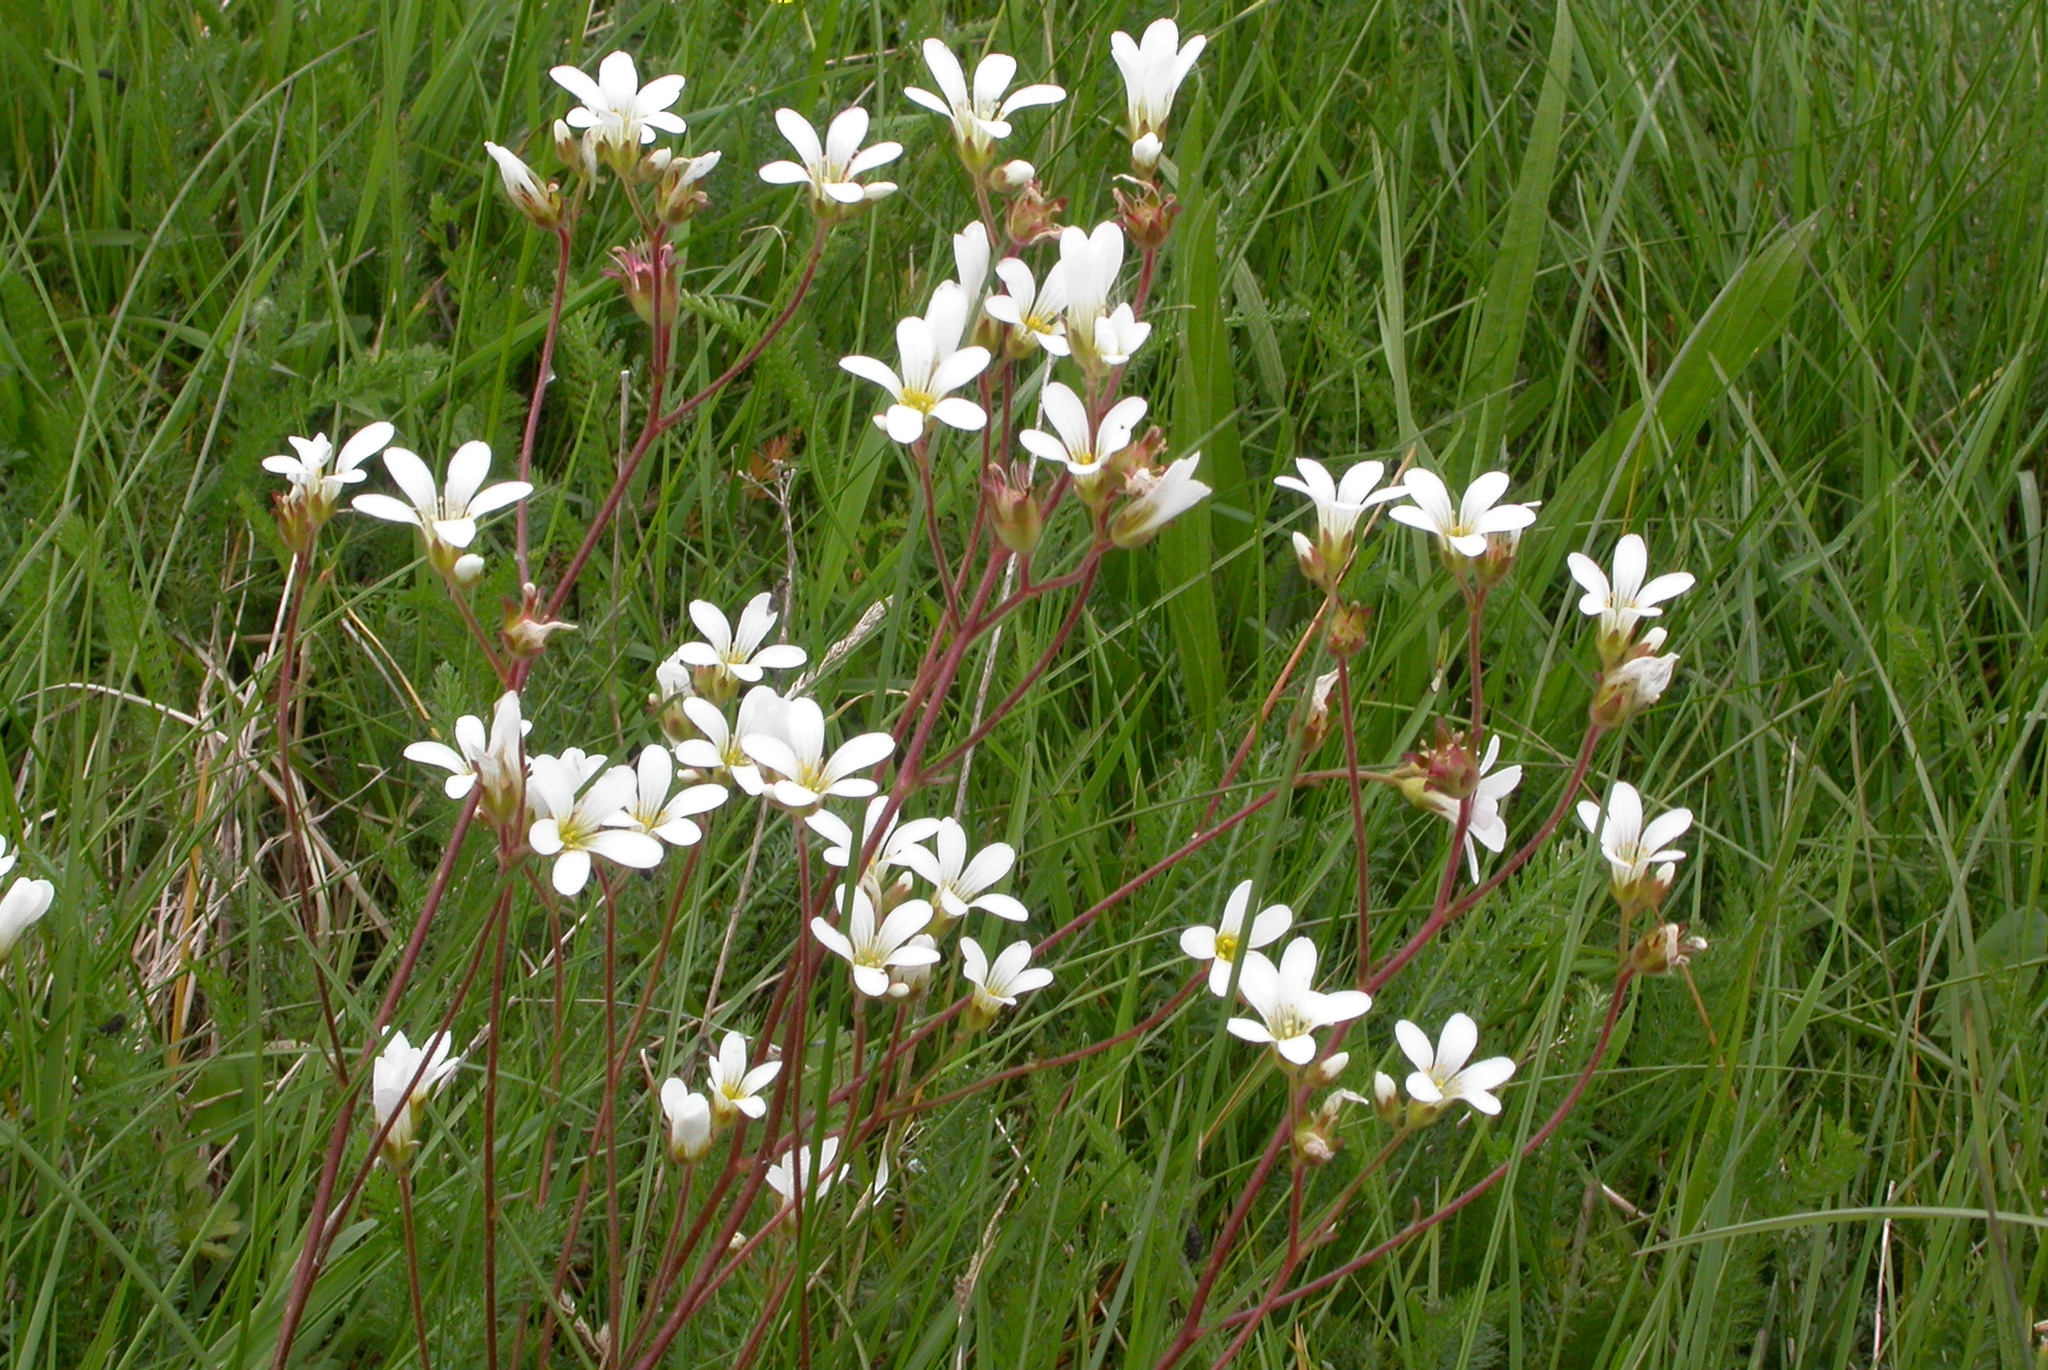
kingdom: Plantae
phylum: Tracheophyta
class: Magnoliopsida
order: Saxifragales
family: Saxifragaceae
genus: Saxifraga
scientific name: Saxifraga granulata
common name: Meadow saxifrage
